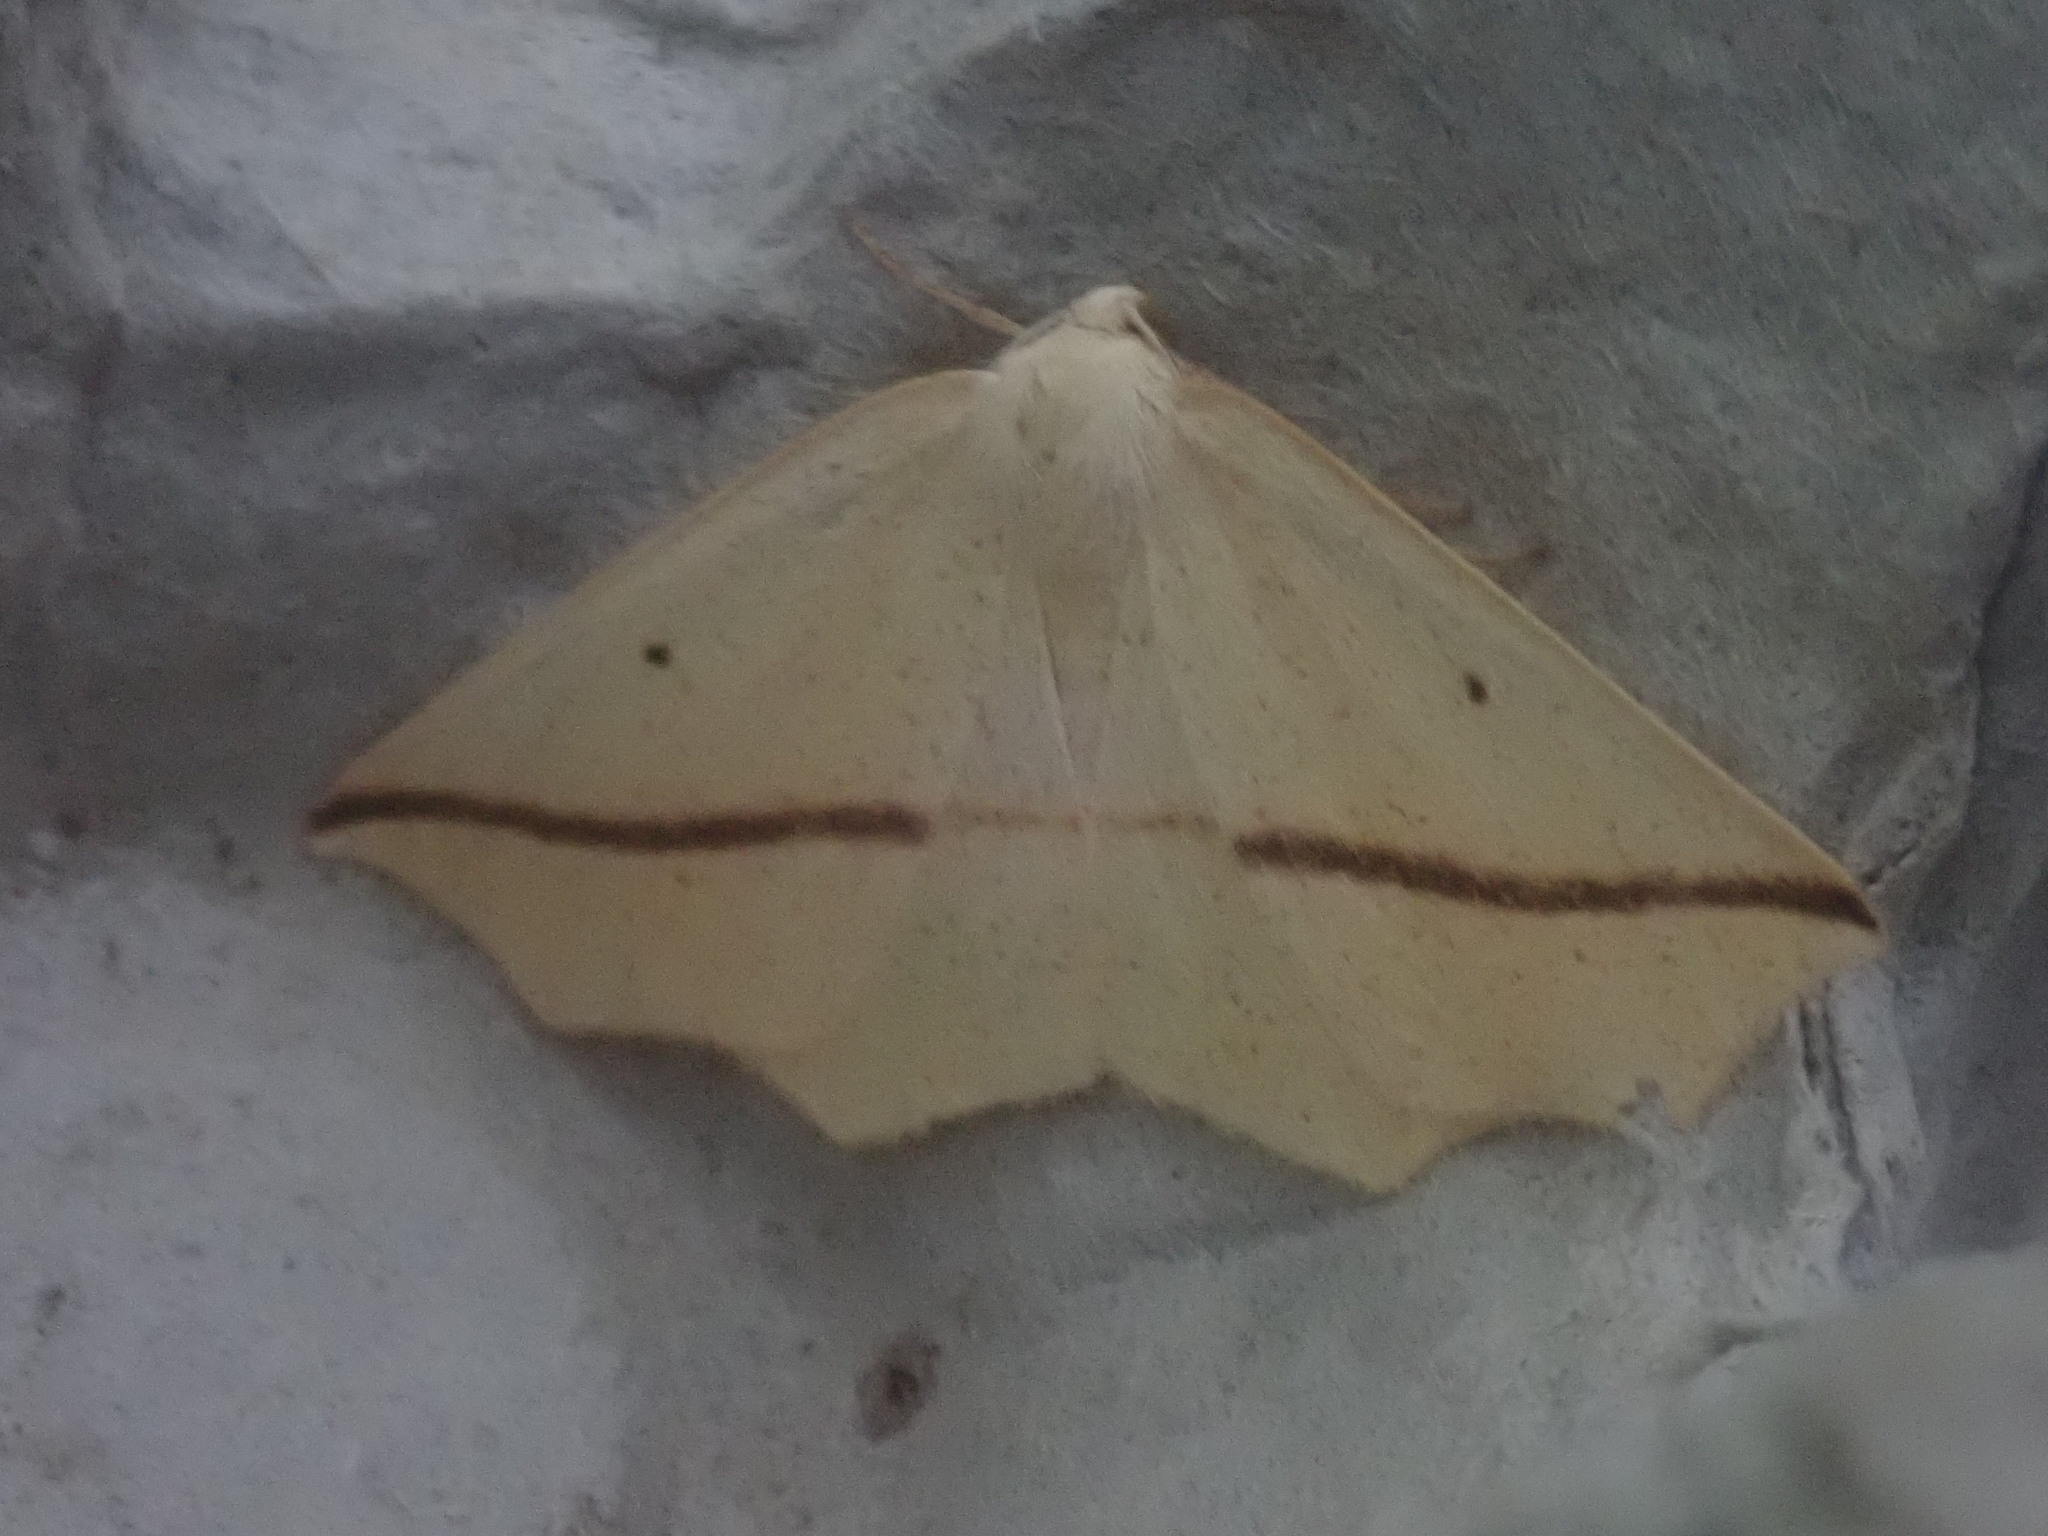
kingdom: Animalia
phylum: Arthropoda
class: Insecta
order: Lepidoptera
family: Geometridae
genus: Tetracis
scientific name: Tetracis crocallata
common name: Yellow slant-line
